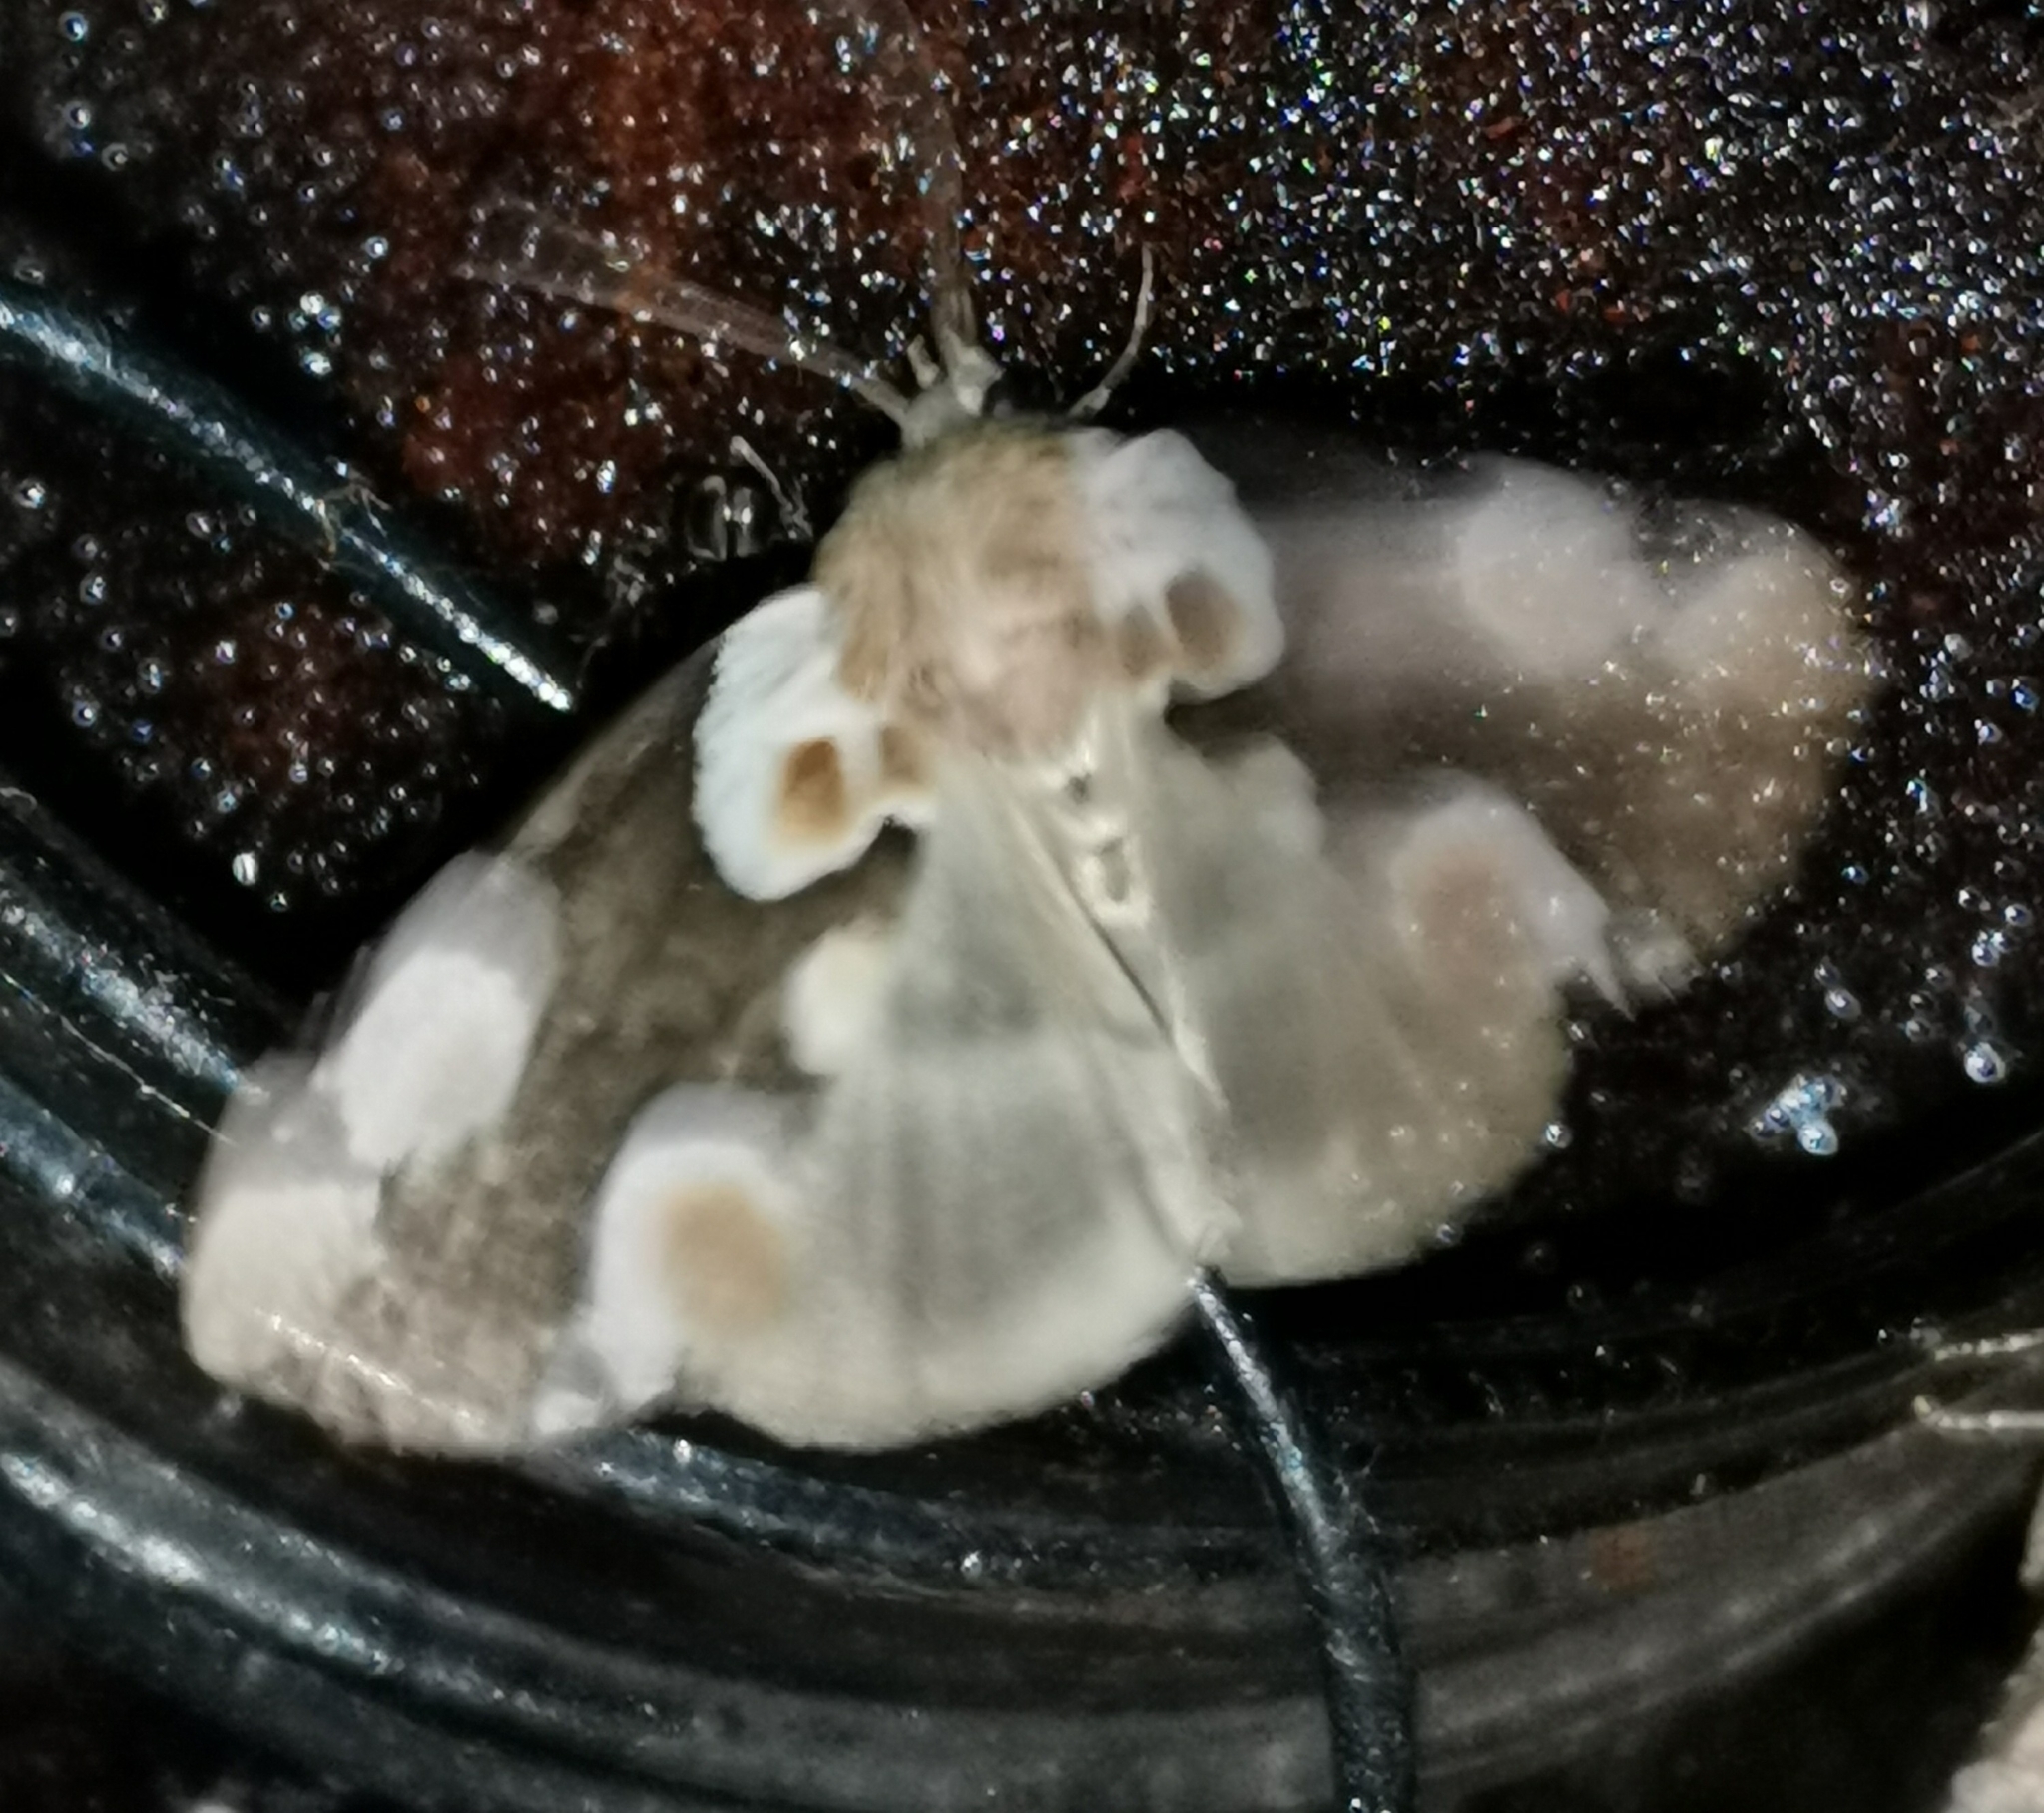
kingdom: Animalia
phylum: Arthropoda
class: Insecta
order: Lepidoptera
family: Drepanidae
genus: Thyatira
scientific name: Thyatira batis
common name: Peach blossom
